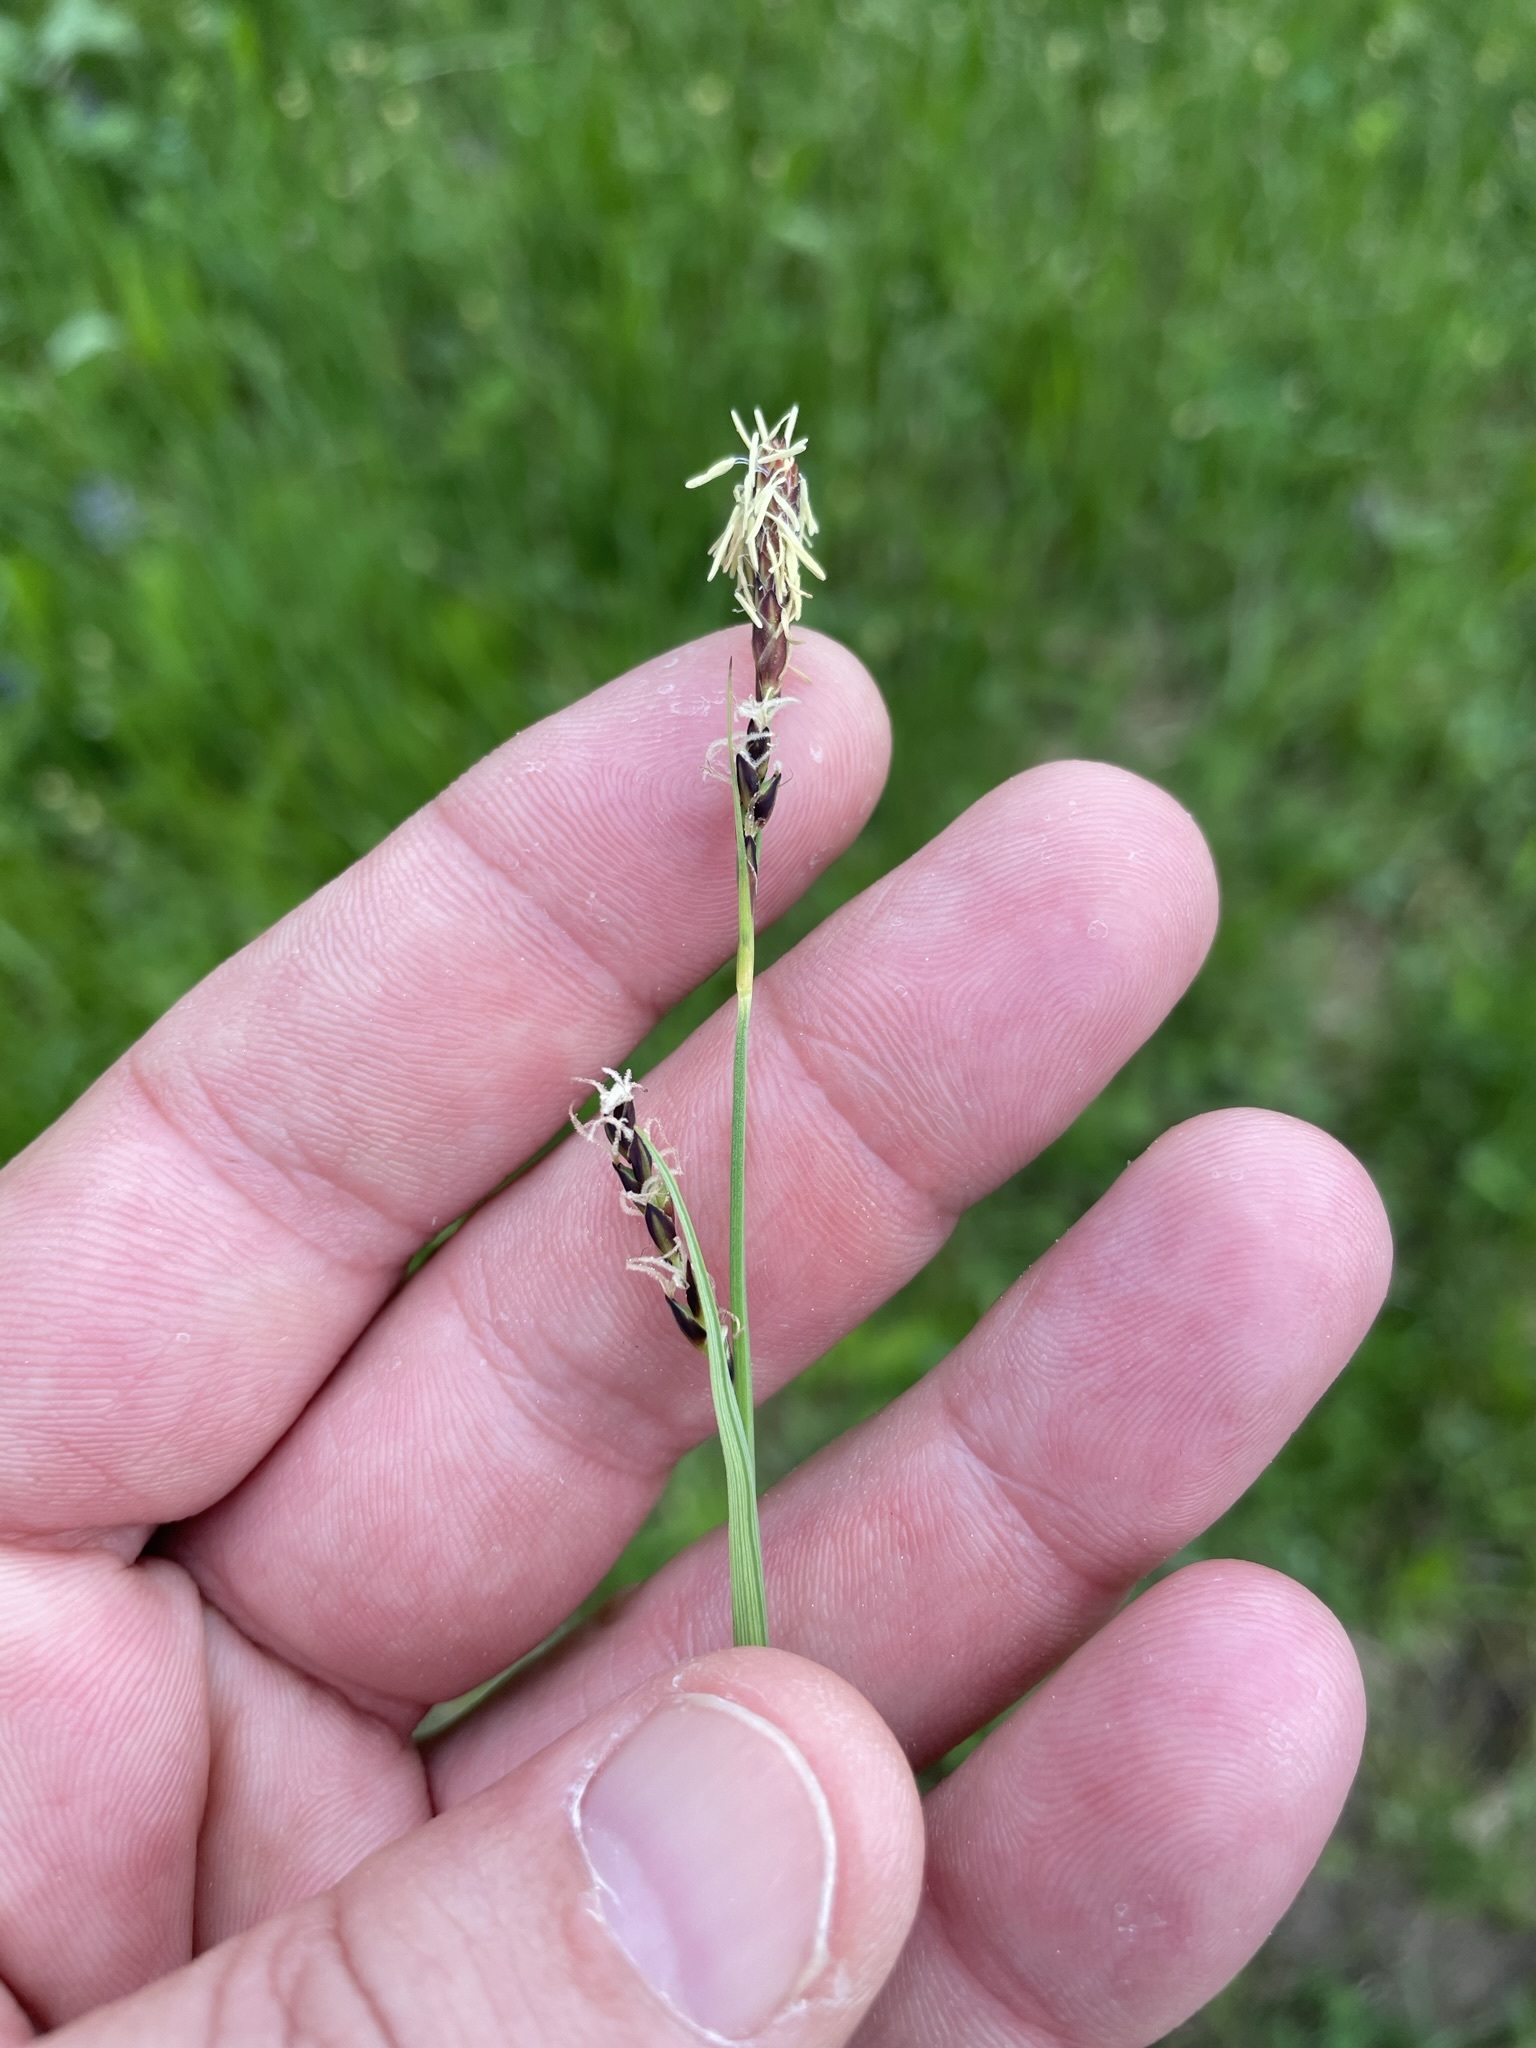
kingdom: Plantae
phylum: Tracheophyta
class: Liliopsida
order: Poales
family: Cyperaceae
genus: Carex
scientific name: Carex panicea
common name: Carnation sedge
